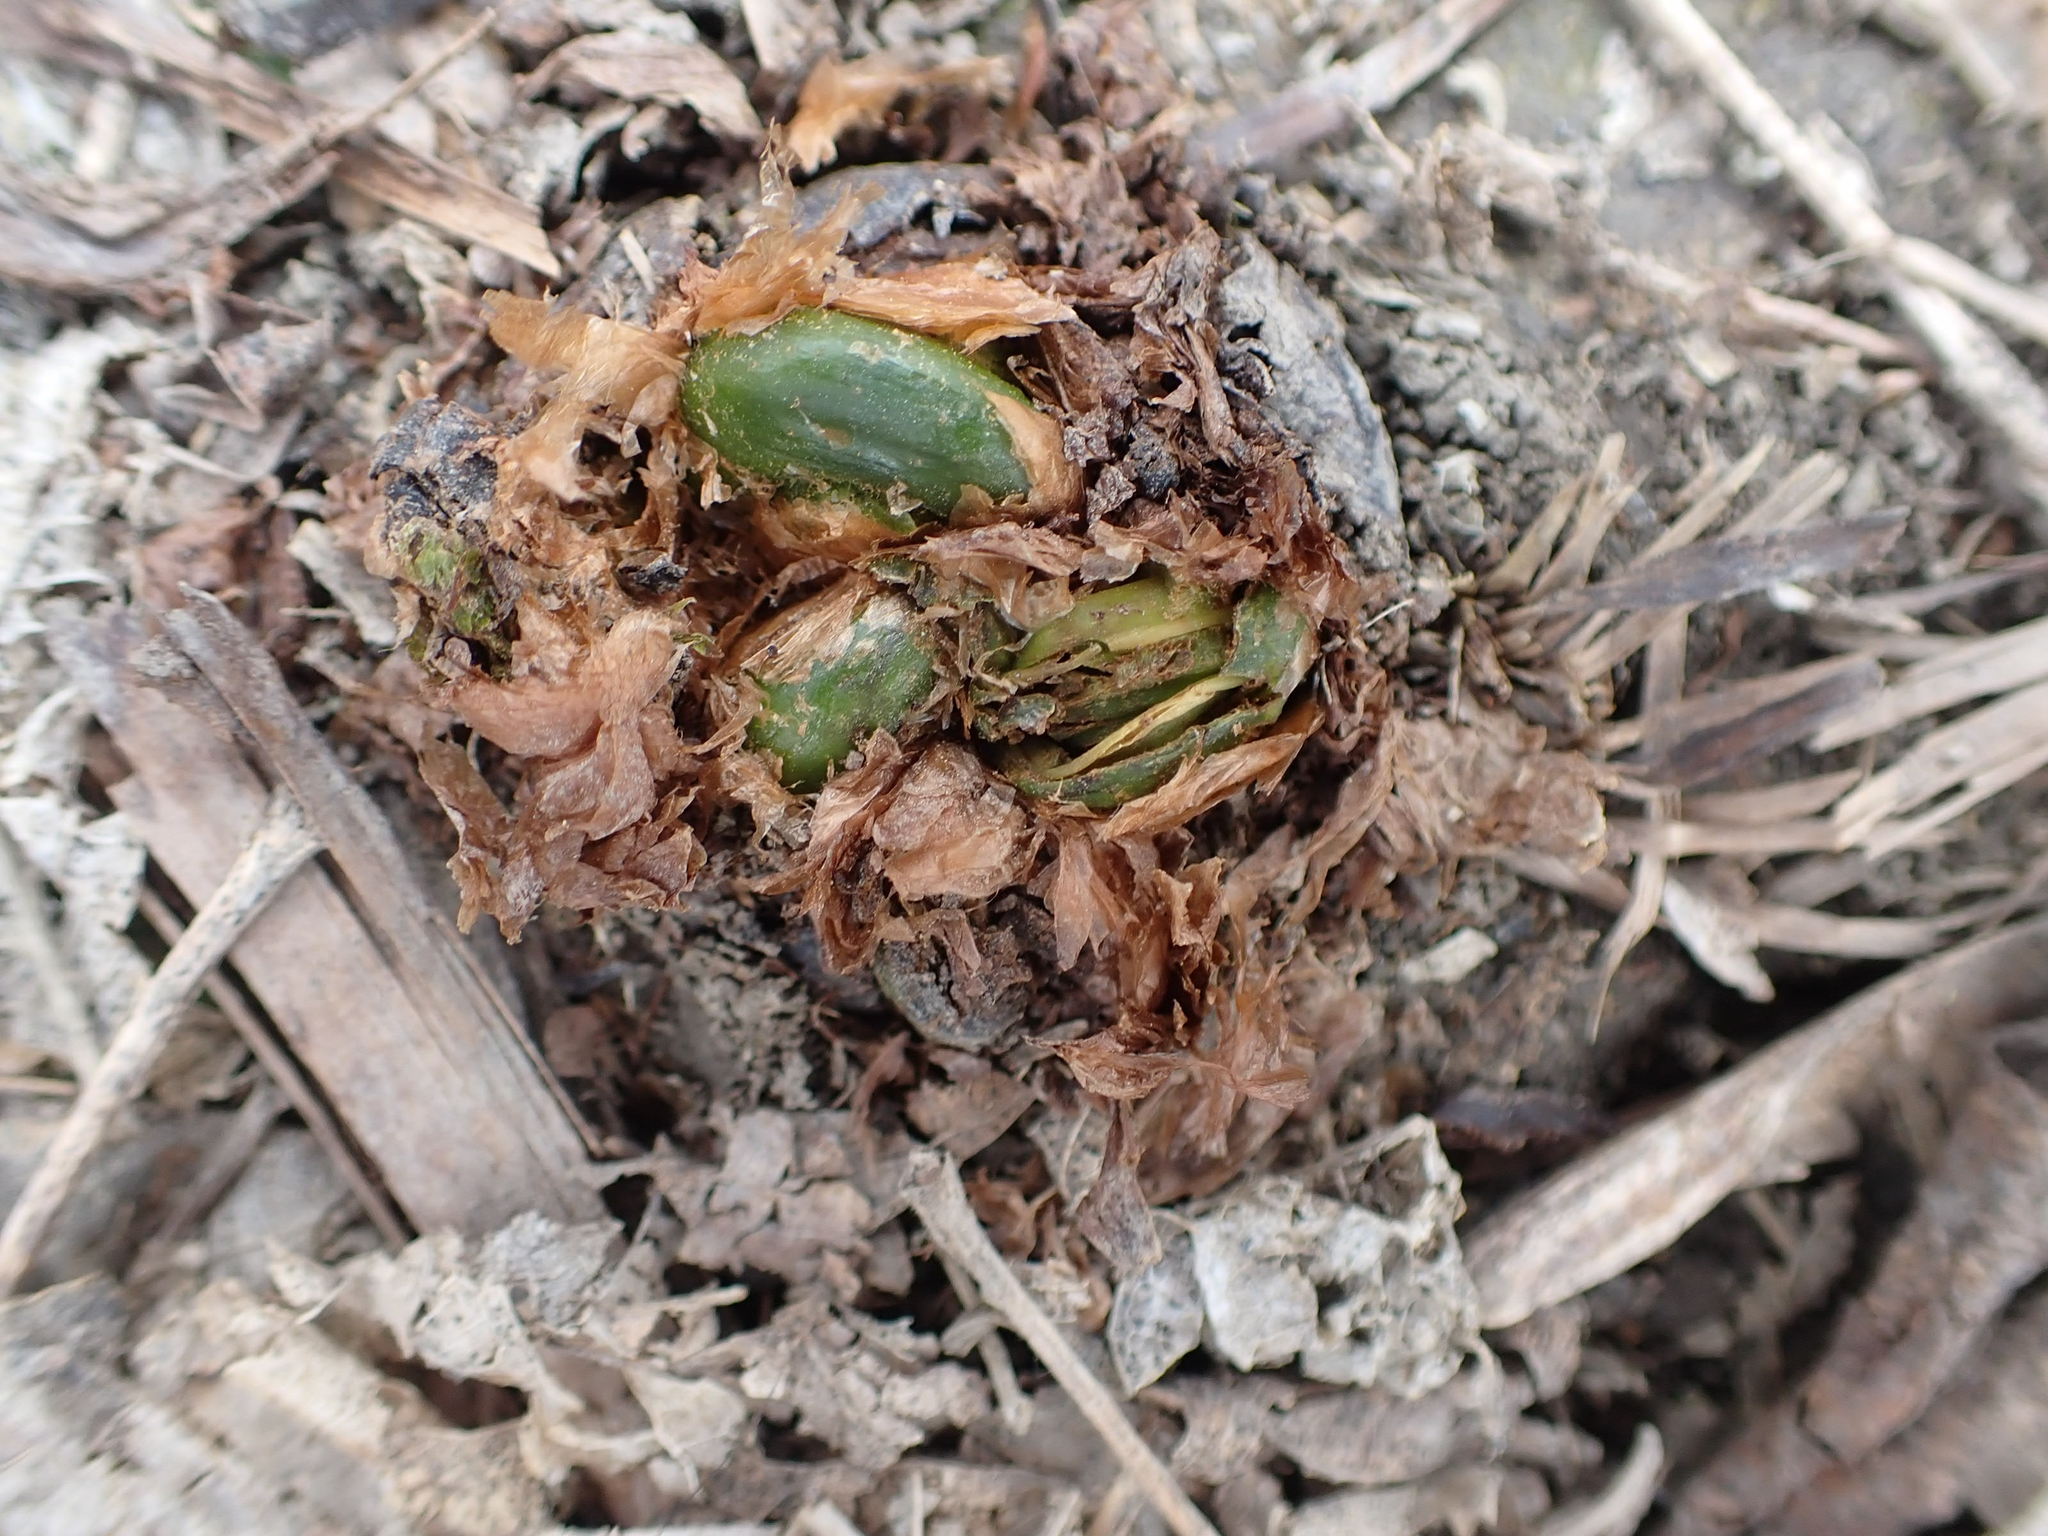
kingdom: Plantae
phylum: Tracheophyta
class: Polypodiopsida
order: Polypodiales
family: Onocleaceae
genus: Matteuccia
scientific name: Matteuccia struthiopteris
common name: Ostrich fern
